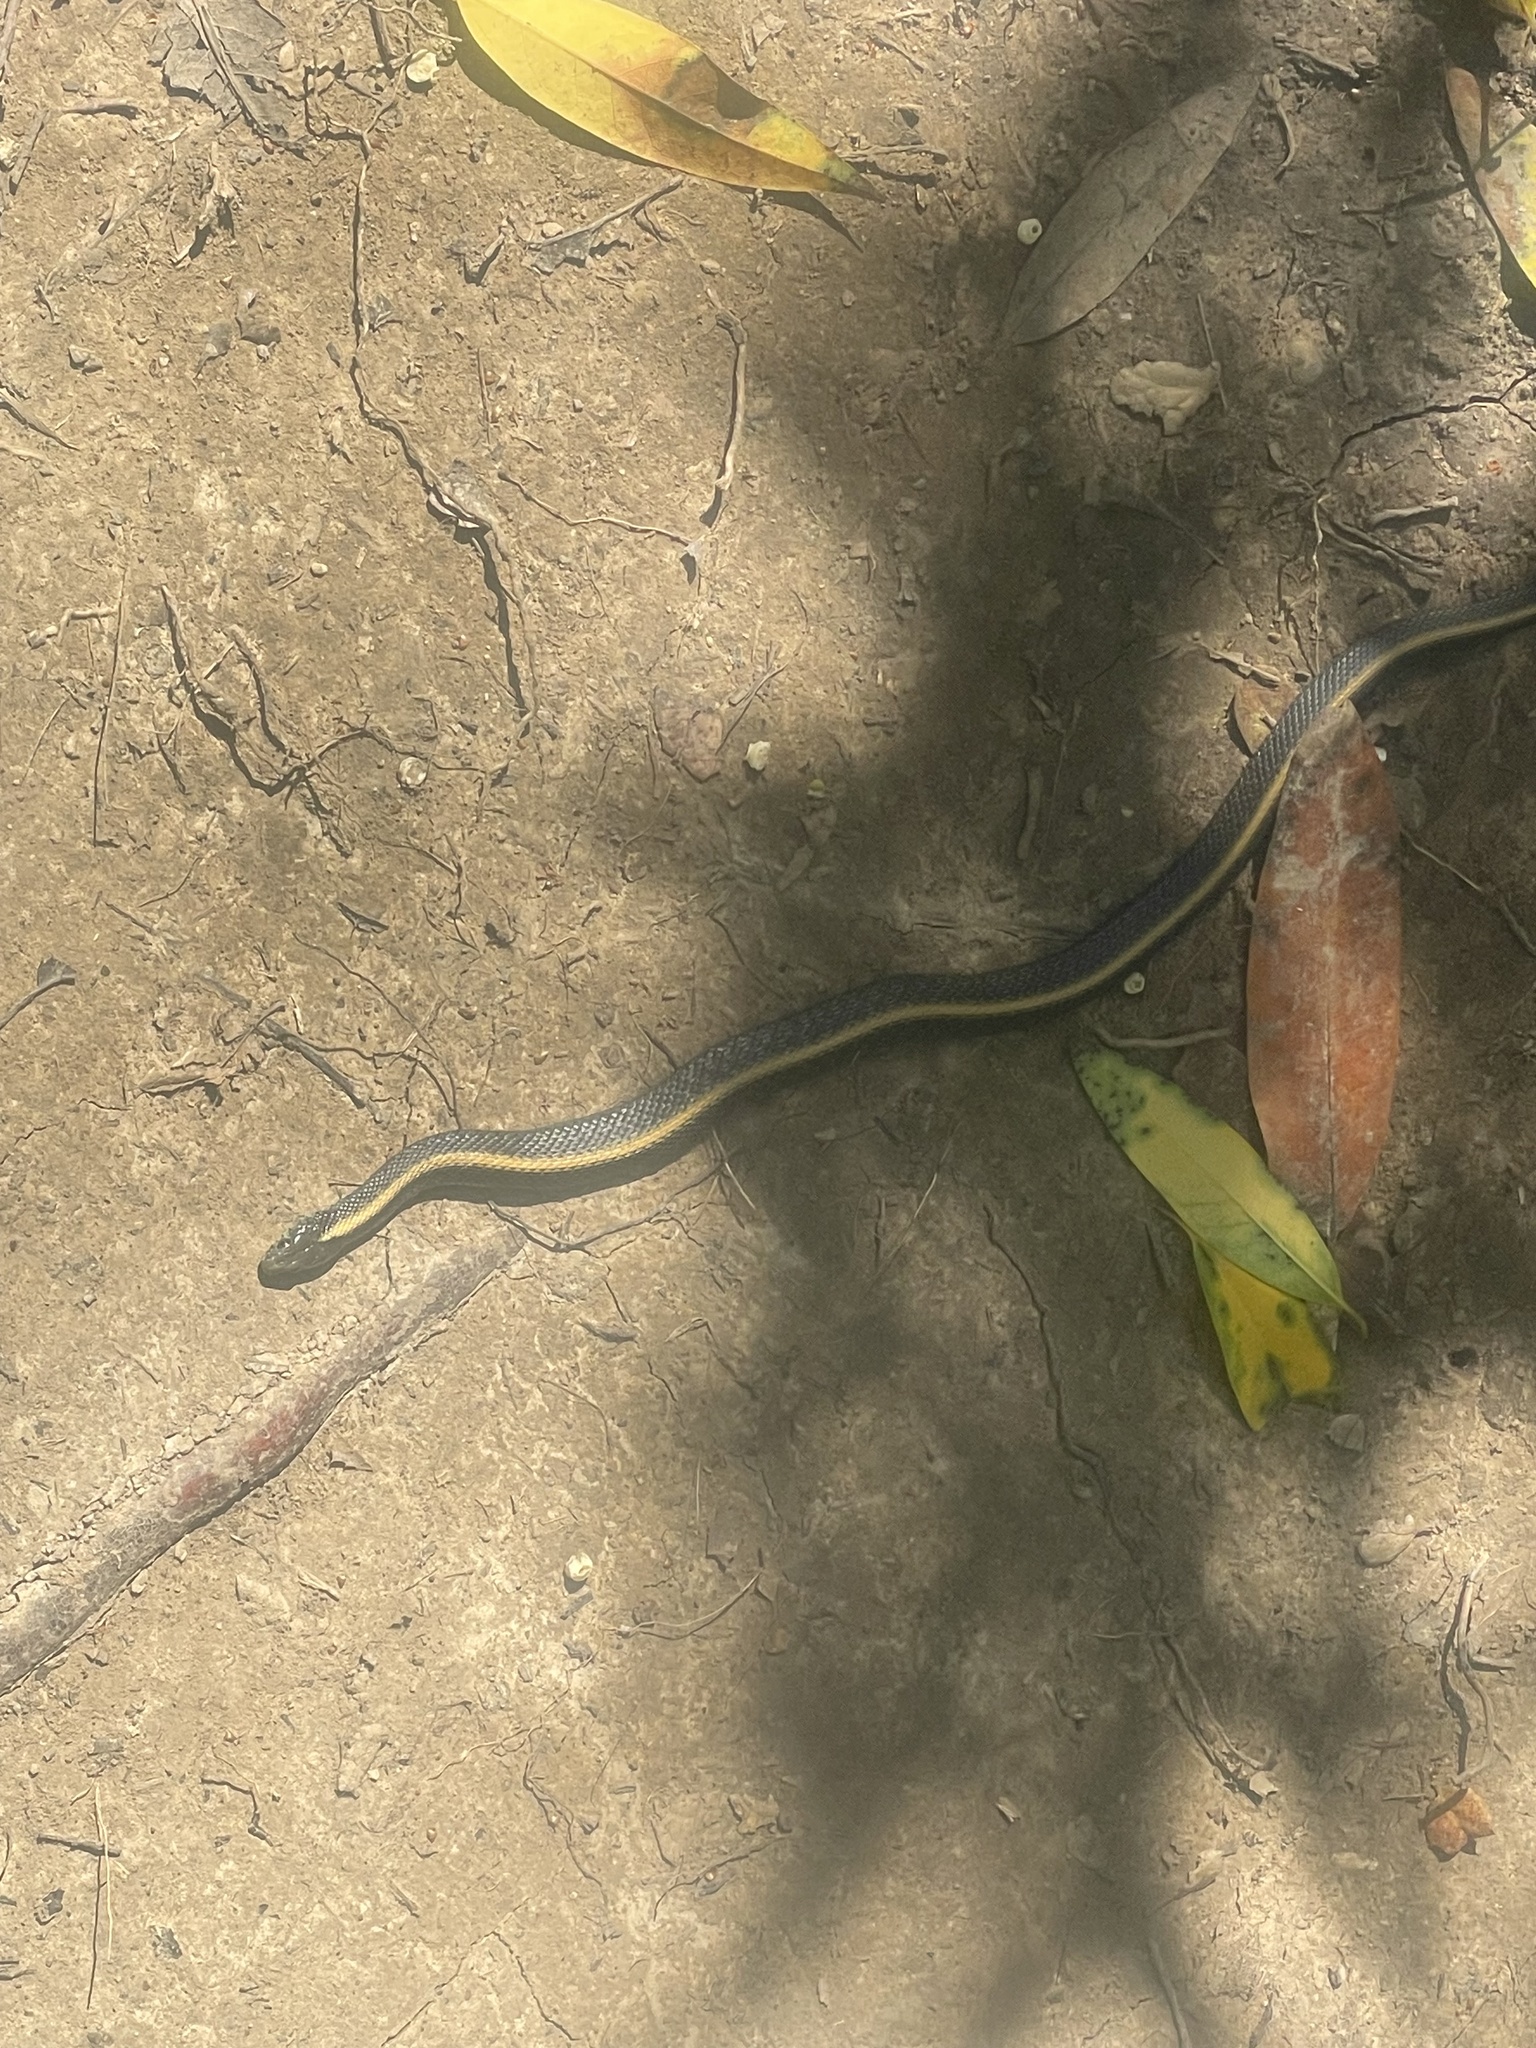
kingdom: Animalia
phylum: Chordata
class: Squamata
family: Colubridae
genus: Thamnophis
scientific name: Thamnophis atratus
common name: Pacific coast aquatic garter snake
